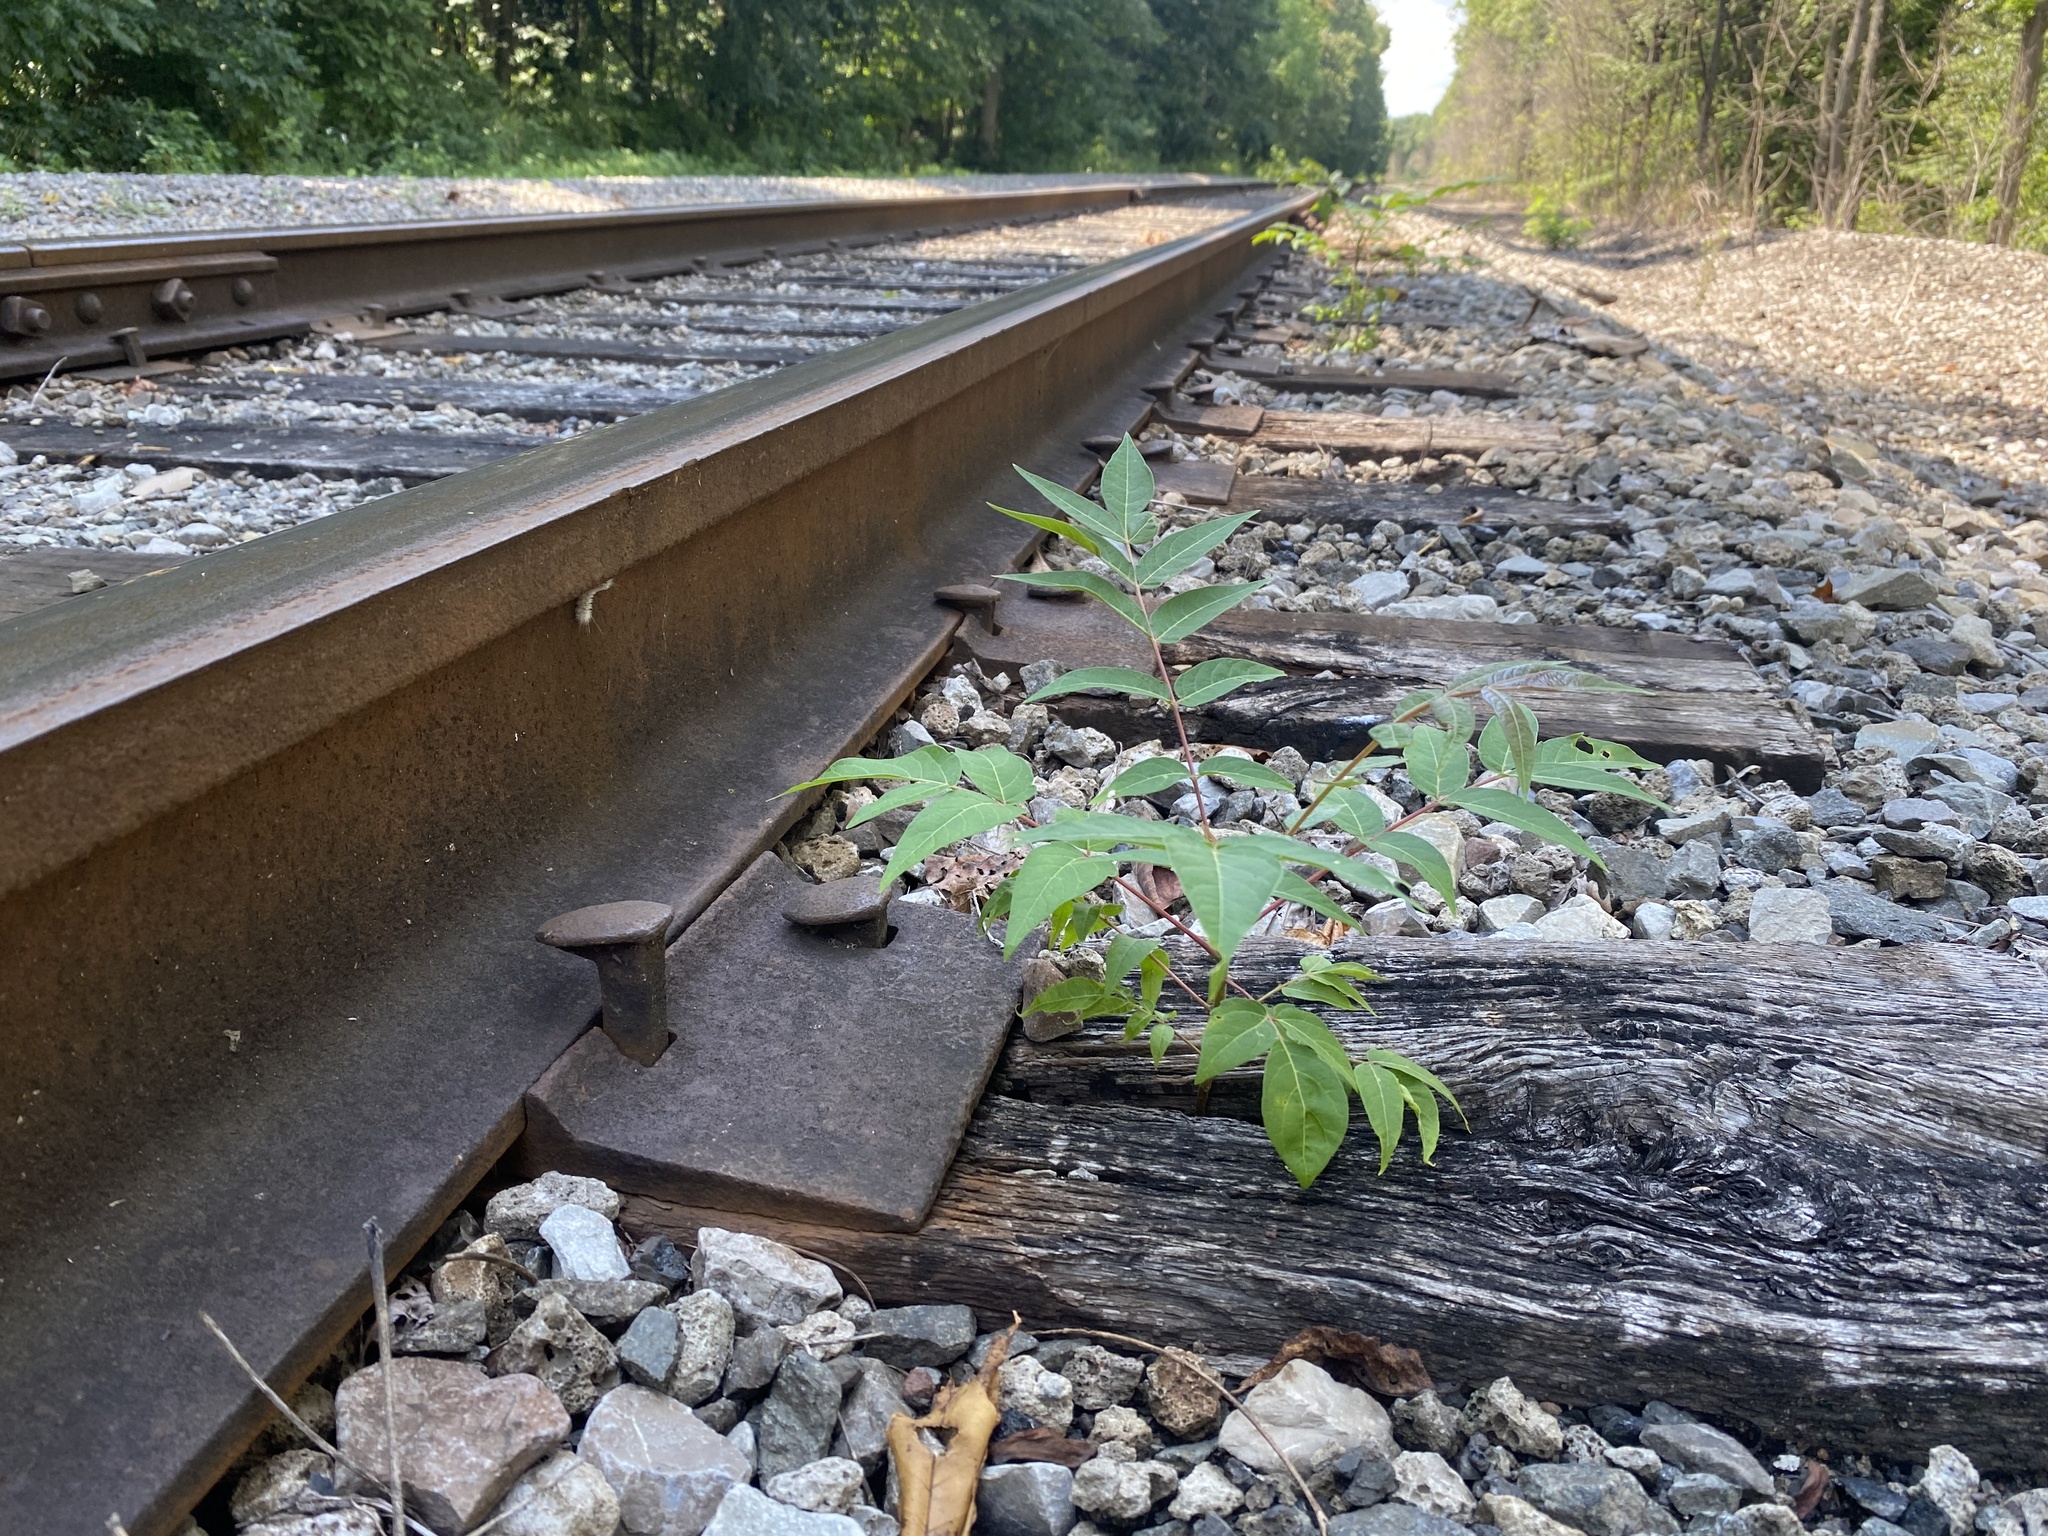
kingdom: Plantae
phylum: Tracheophyta
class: Magnoliopsida
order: Sapindales
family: Simaroubaceae
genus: Ailanthus
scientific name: Ailanthus altissima
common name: Tree-of-heaven
